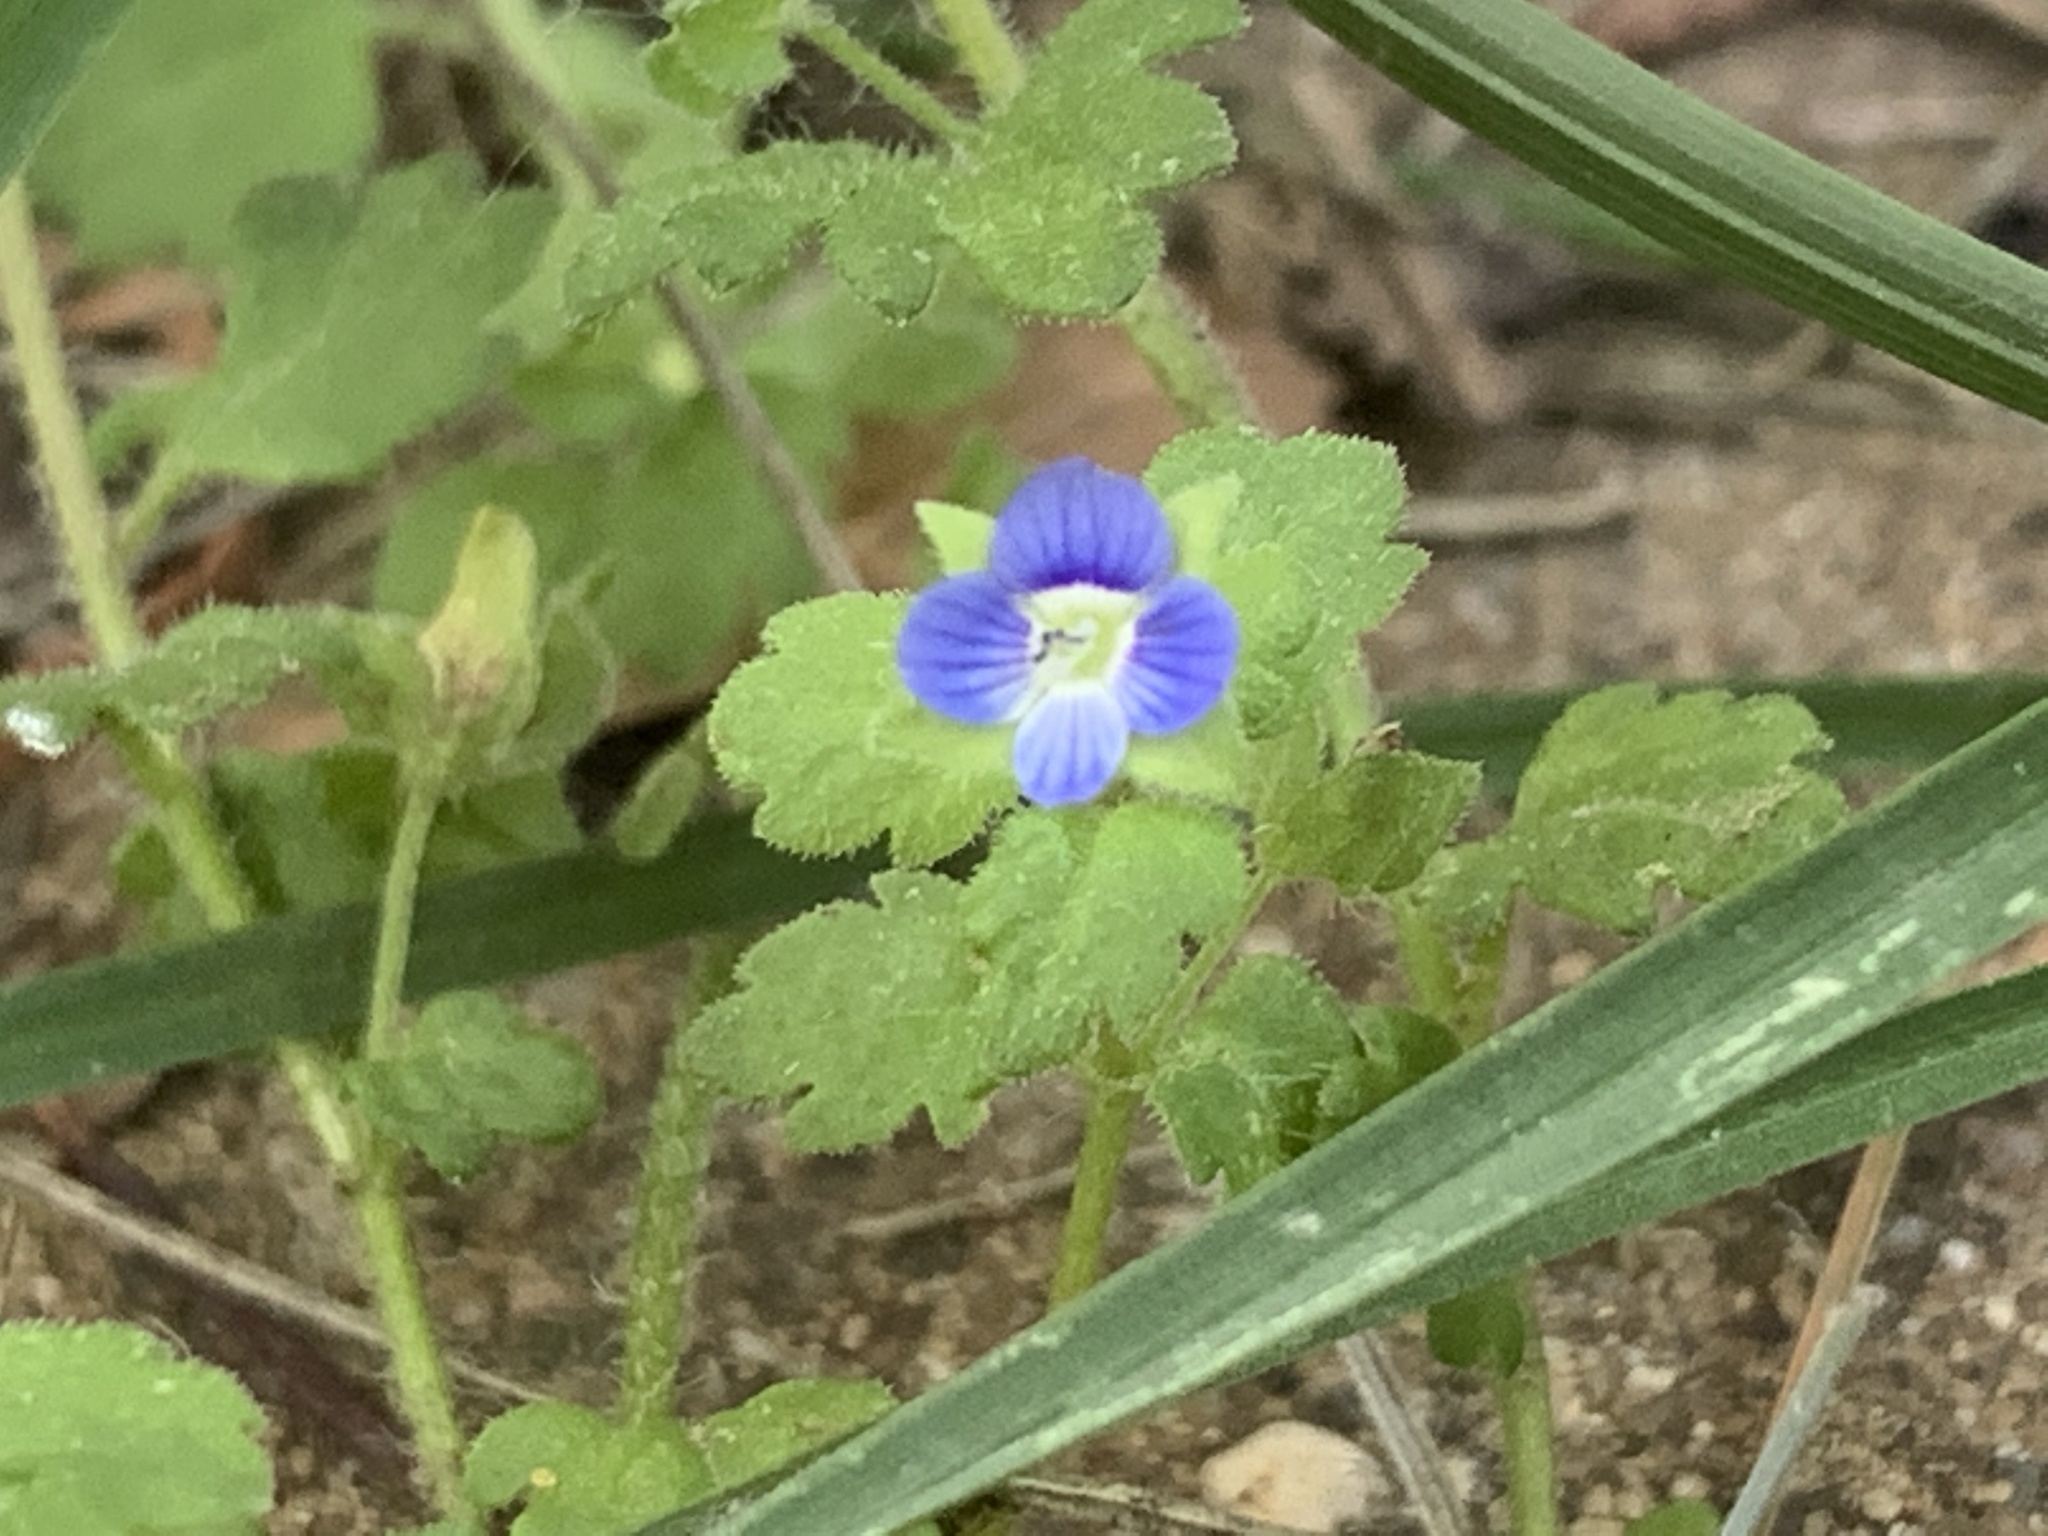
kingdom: Plantae
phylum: Tracheophyta
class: Magnoliopsida
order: Lamiales
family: Plantaginaceae
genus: Veronica
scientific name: Veronica polita
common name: Grey field-speedwell
